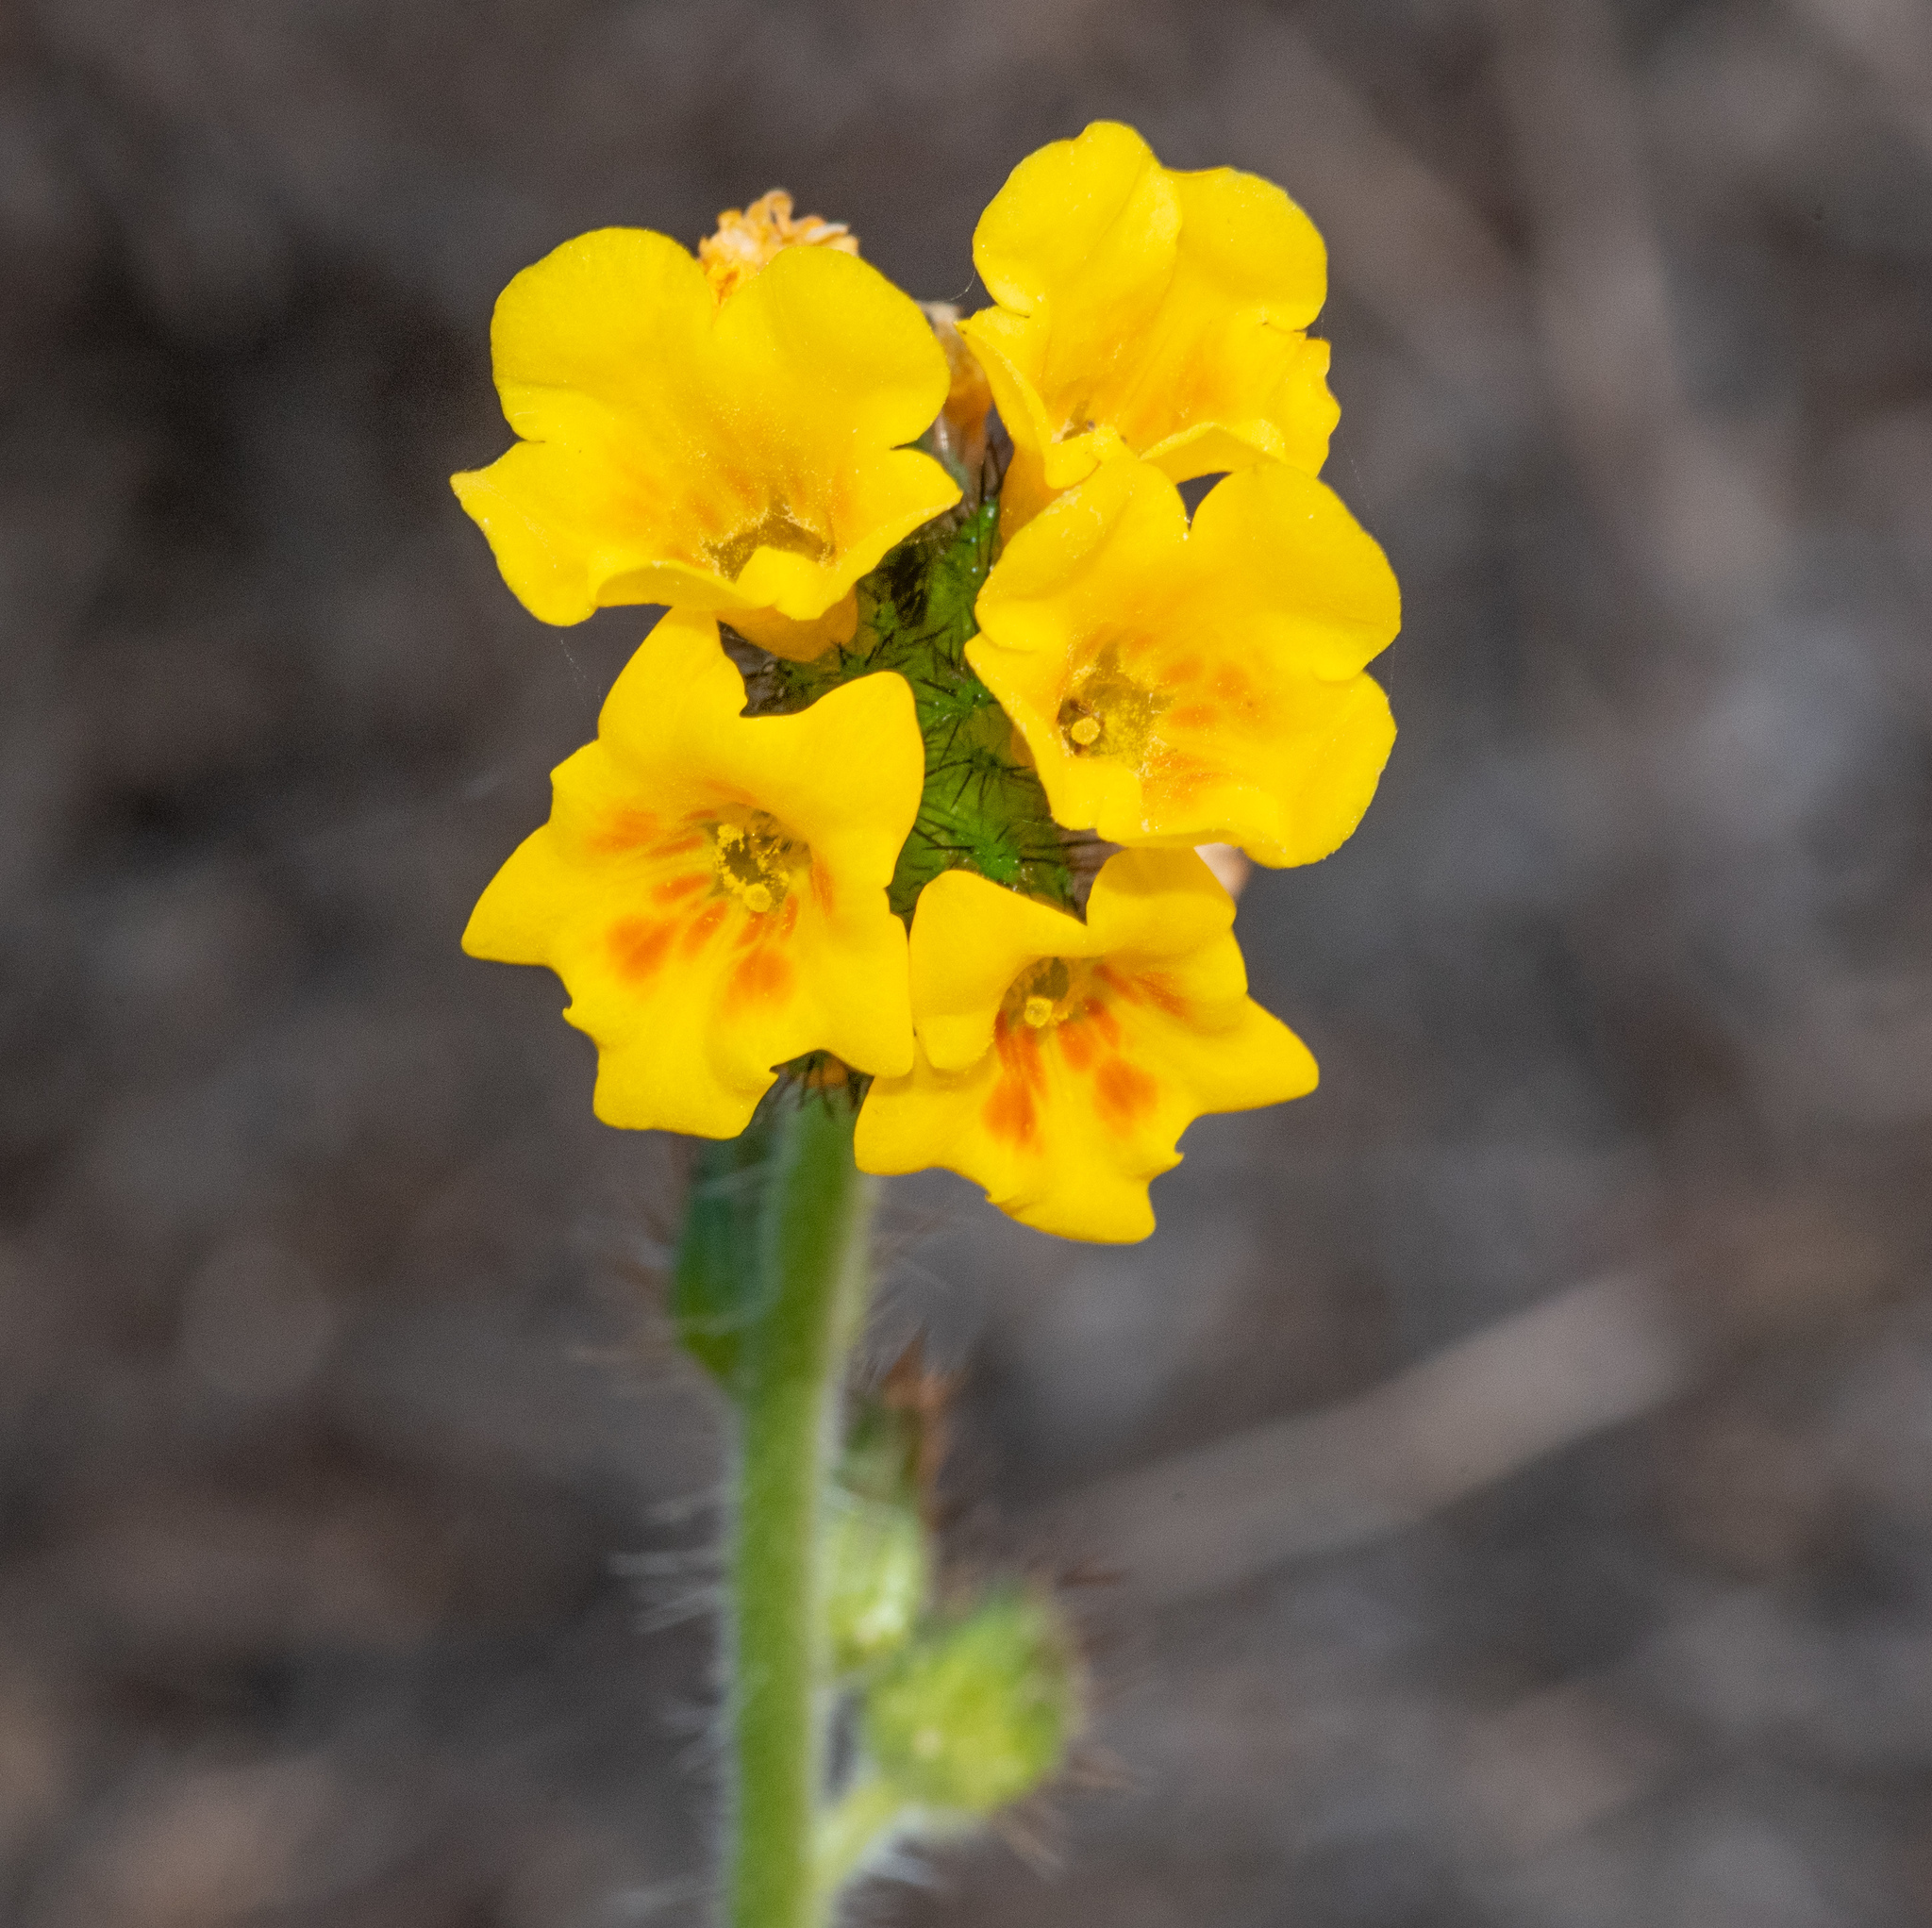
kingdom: Plantae
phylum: Tracheophyta
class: Magnoliopsida
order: Boraginales
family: Boraginaceae
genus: Amsinckia
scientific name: Amsinckia spectabilis
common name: Seaside fiddleneck
